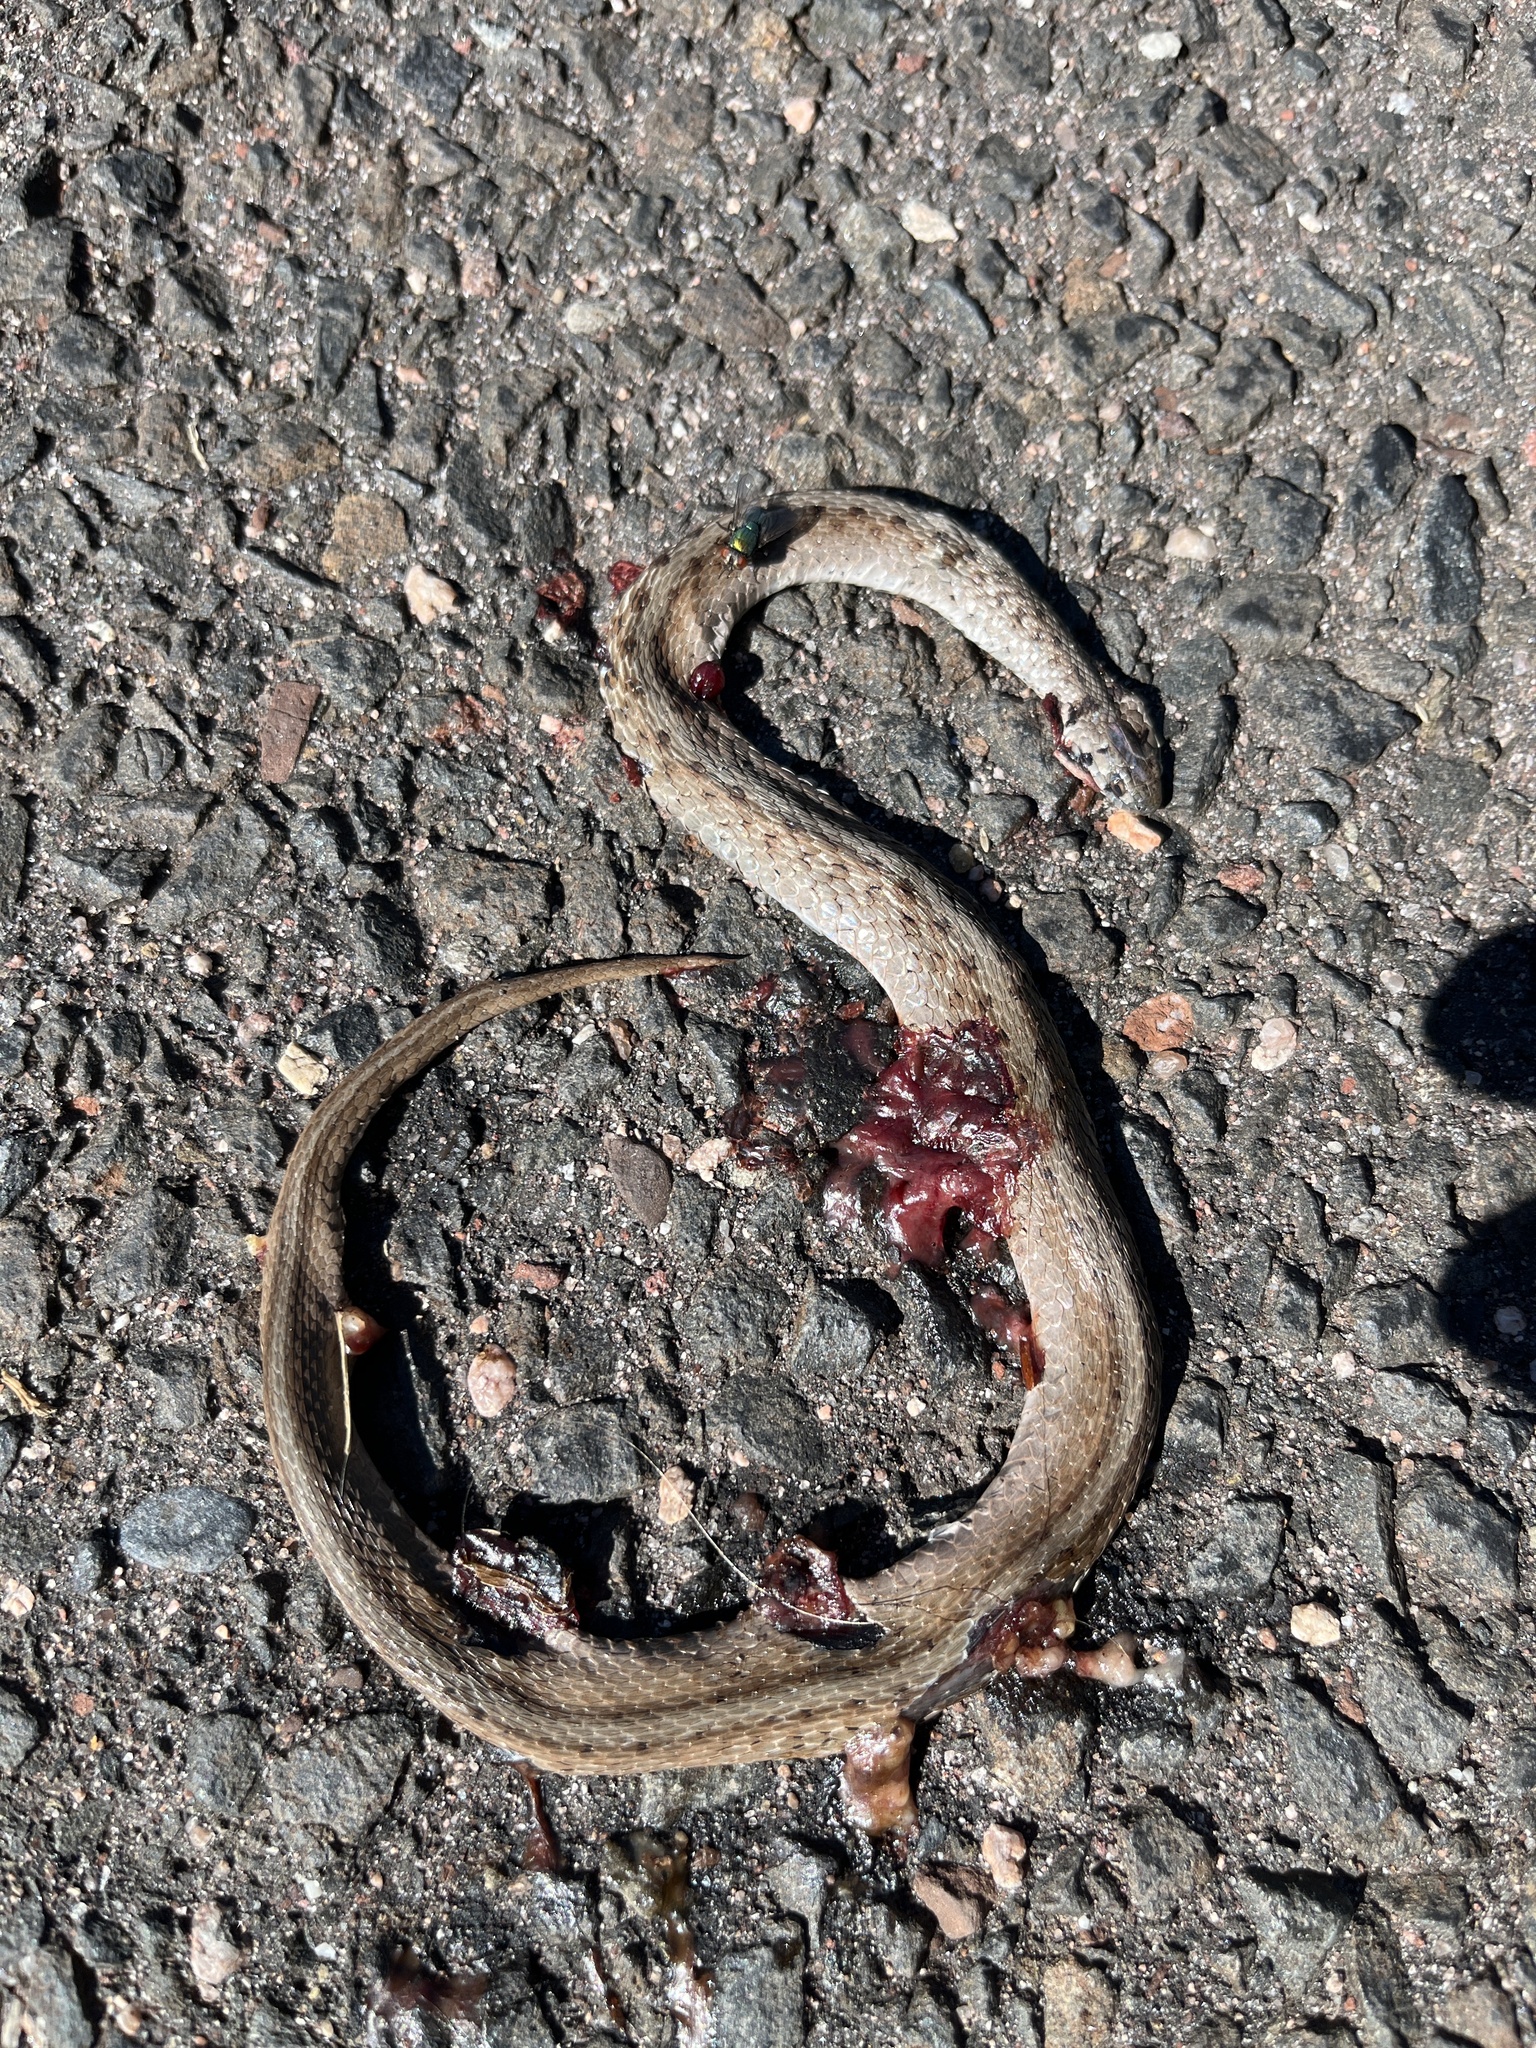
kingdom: Animalia
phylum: Chordata
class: Squamata
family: Colubridae
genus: Storeria
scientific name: Storeria dekayi
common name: (dekay’s) brown snake
